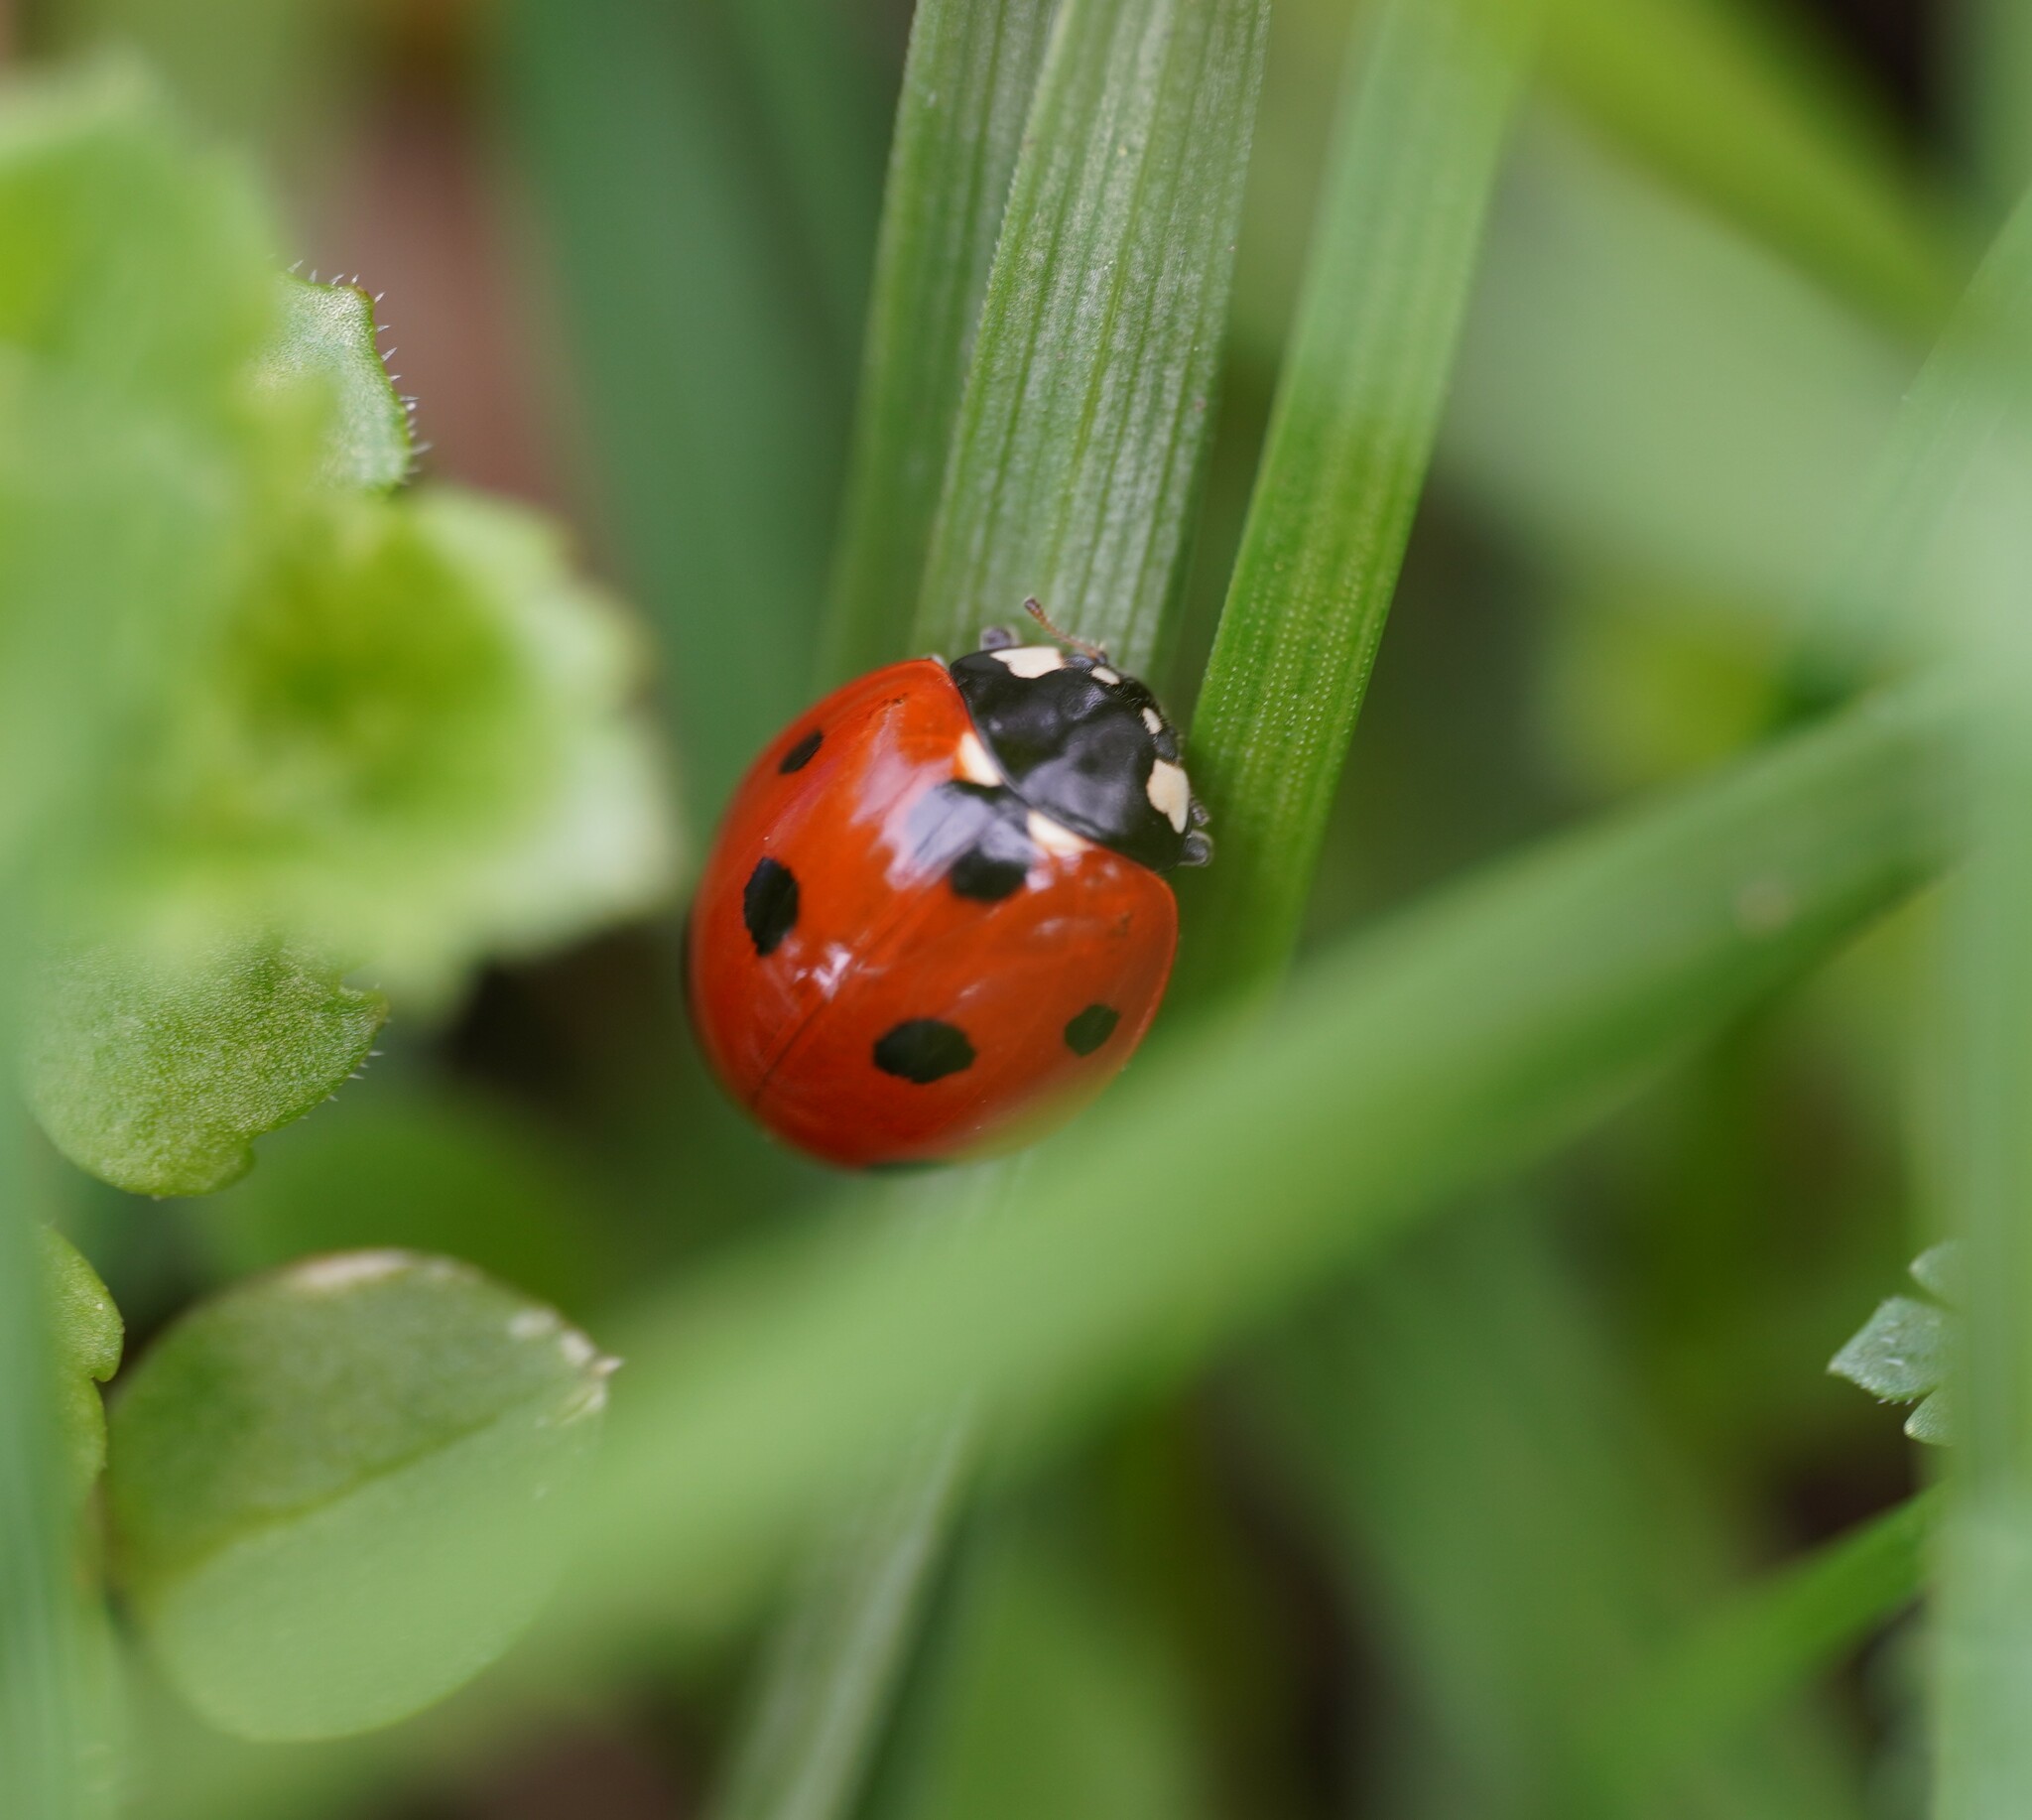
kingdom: Animalia
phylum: Arthropoda
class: Insecta
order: Coleoptera
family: Coccinellidae
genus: Coccinella
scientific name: Coccinella septempunctata
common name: Sevenspotted lady beetle
